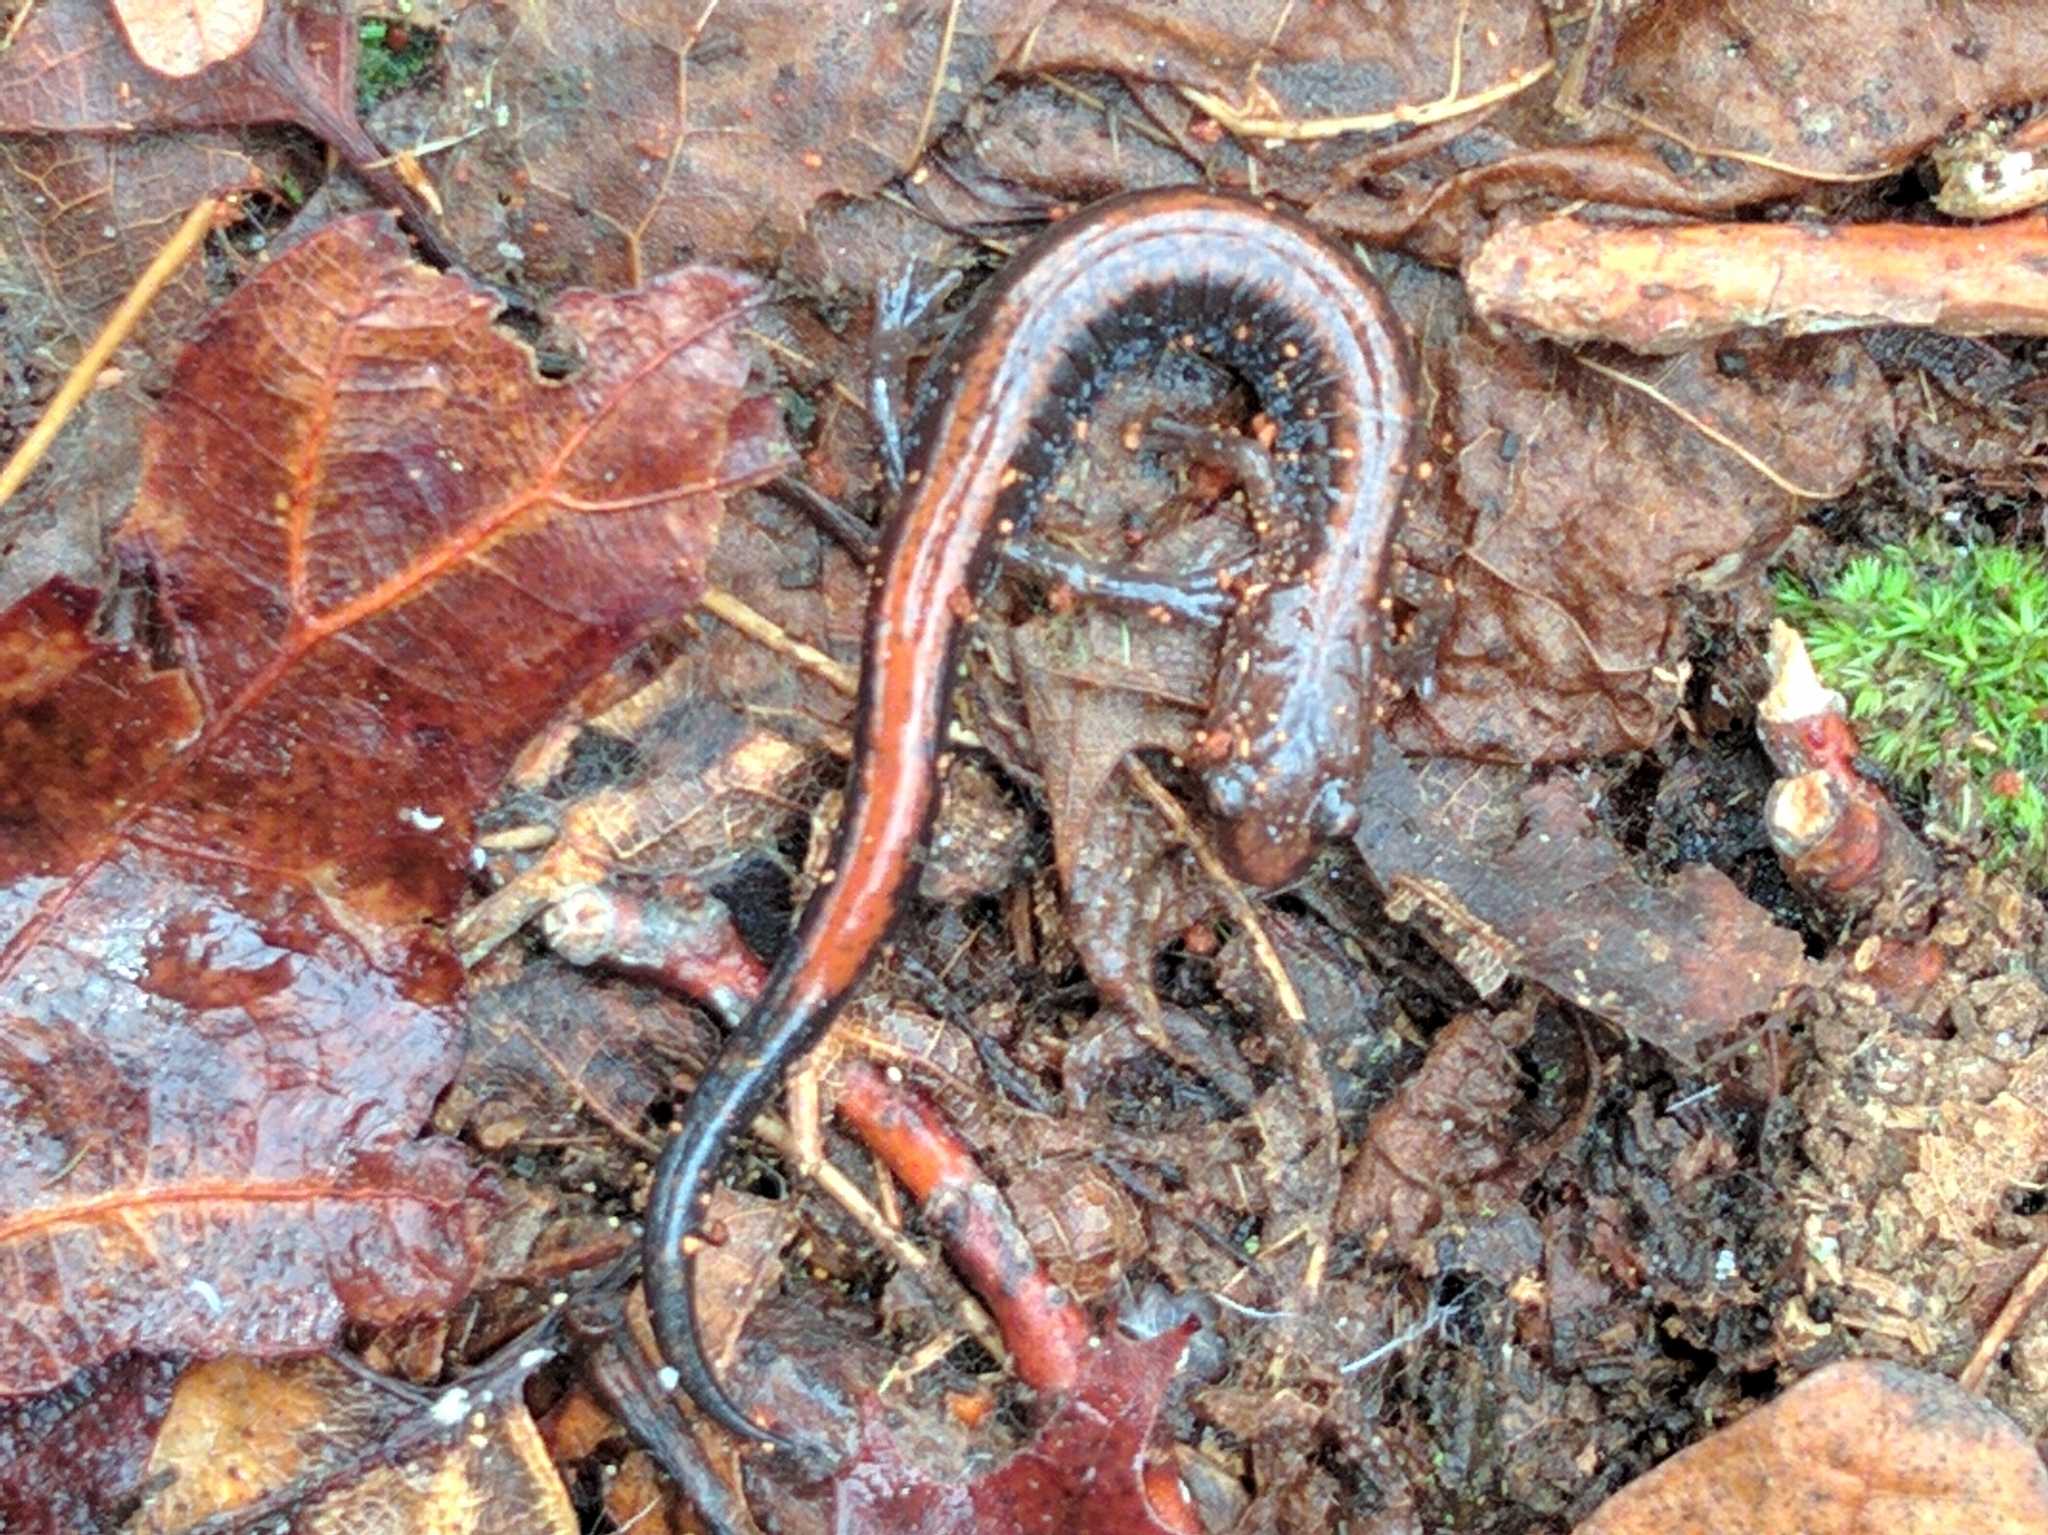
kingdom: Animalia
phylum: Chordata
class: Amphibia
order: Caudata
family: Plethodontidae
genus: Plethodon
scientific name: Plethodon cinereus
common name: Redback salamander
